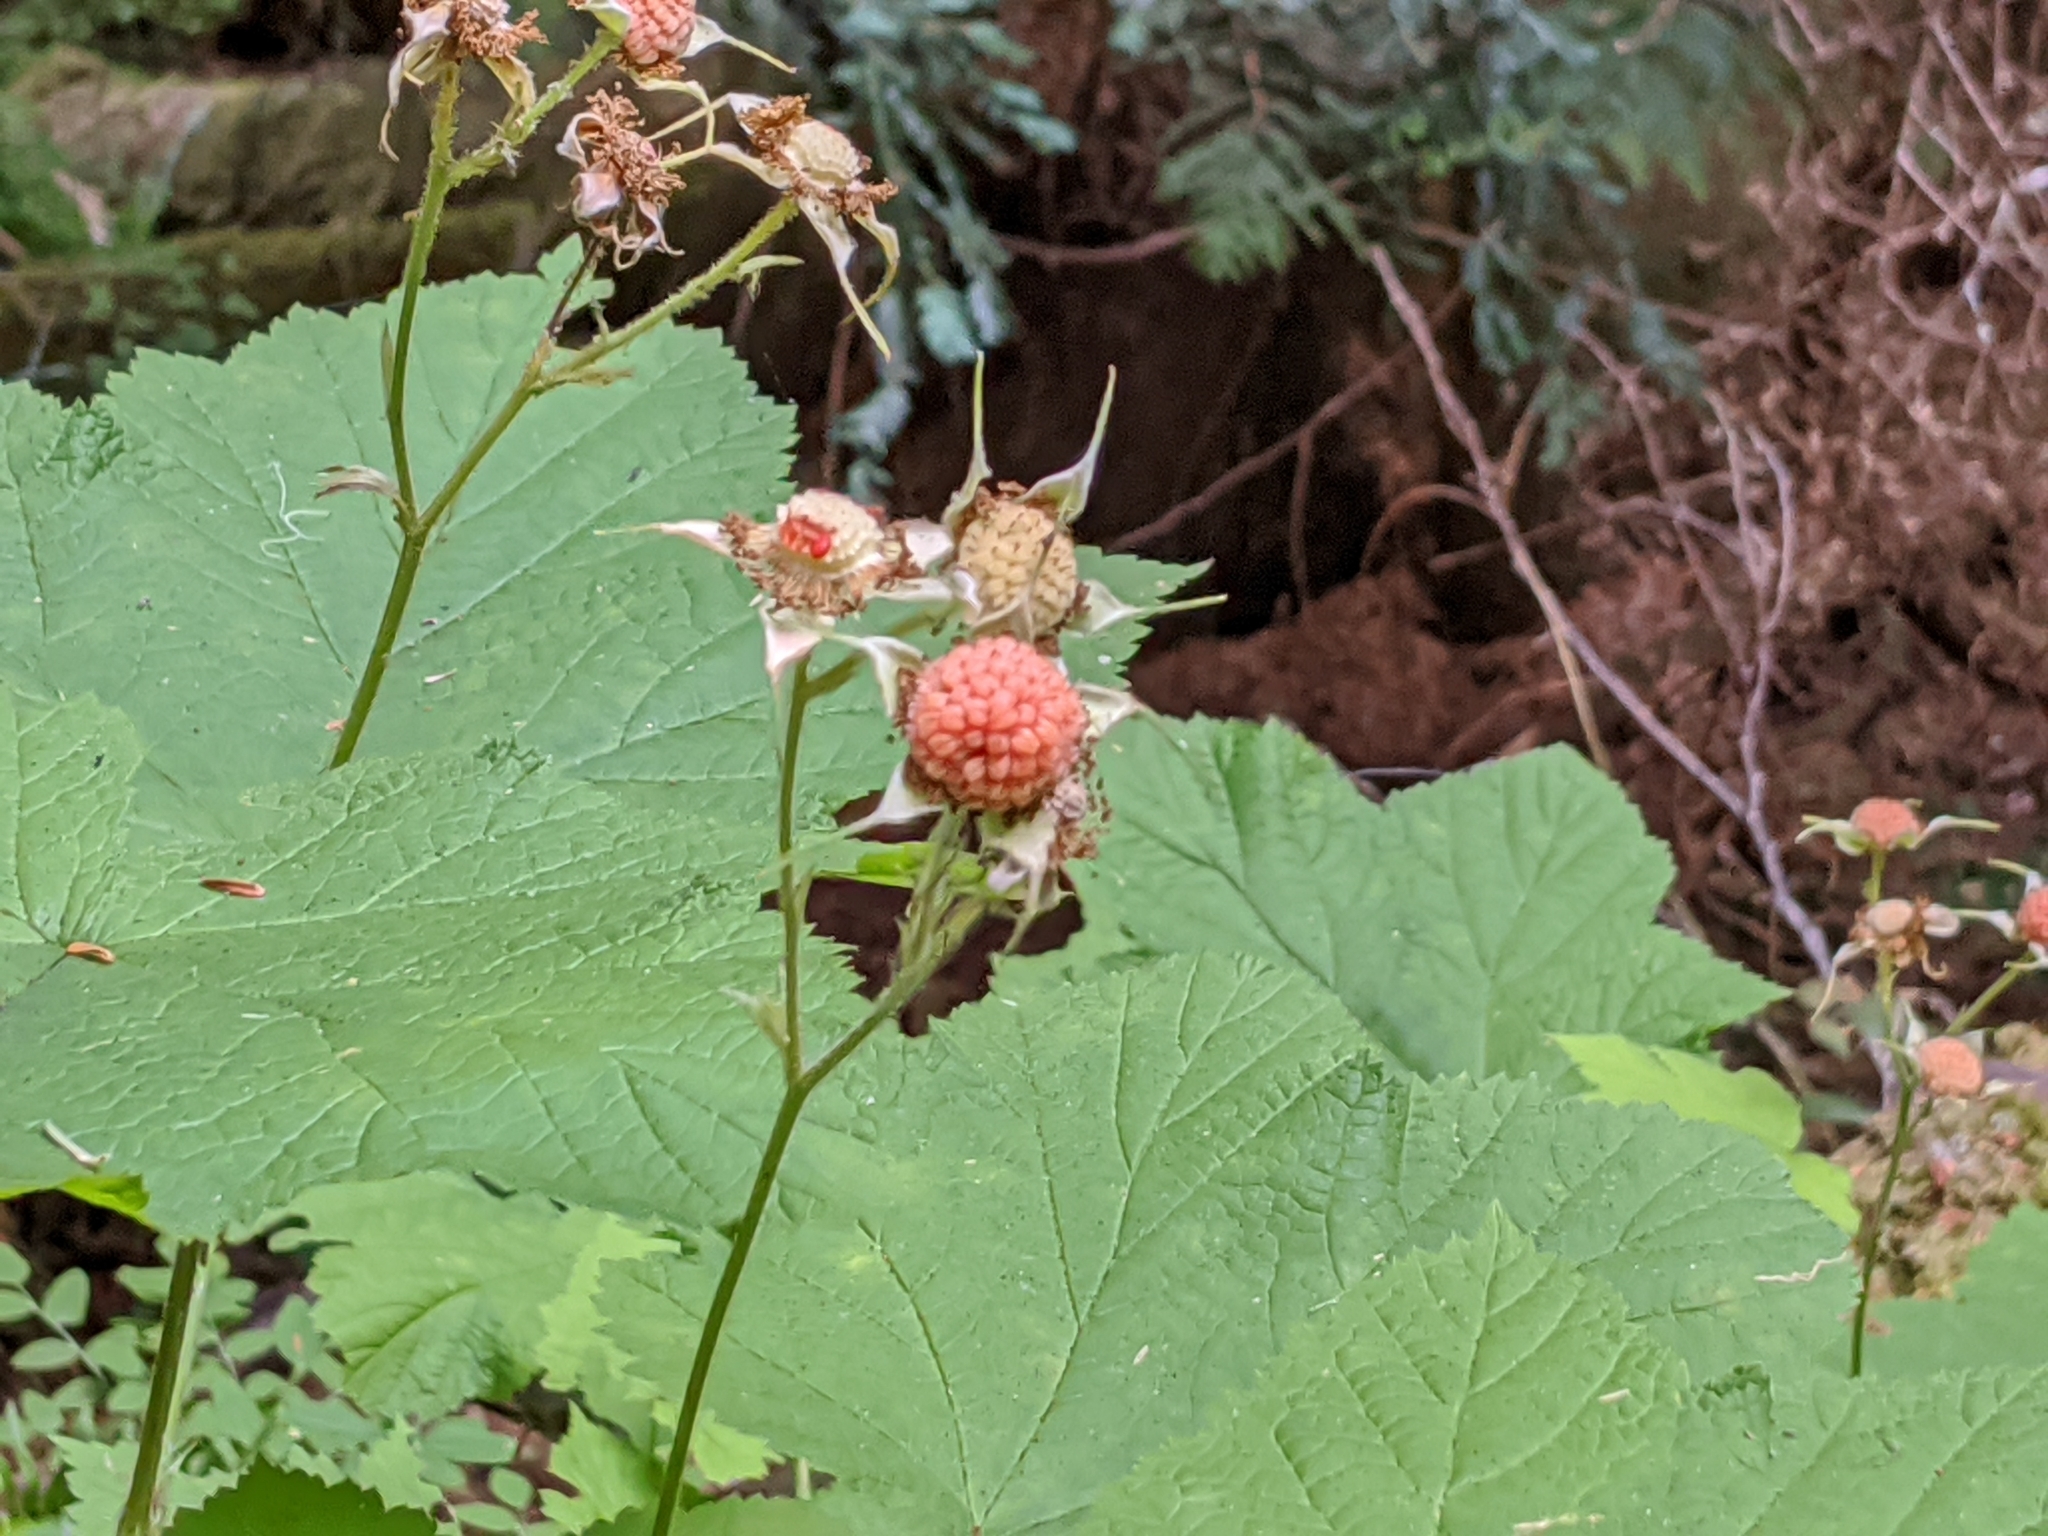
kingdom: Plantae
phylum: Tracheophyta
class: Magnoliopsida
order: Rosales
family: Rosaceae
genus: Rubus
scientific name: Rubus parviflorus
